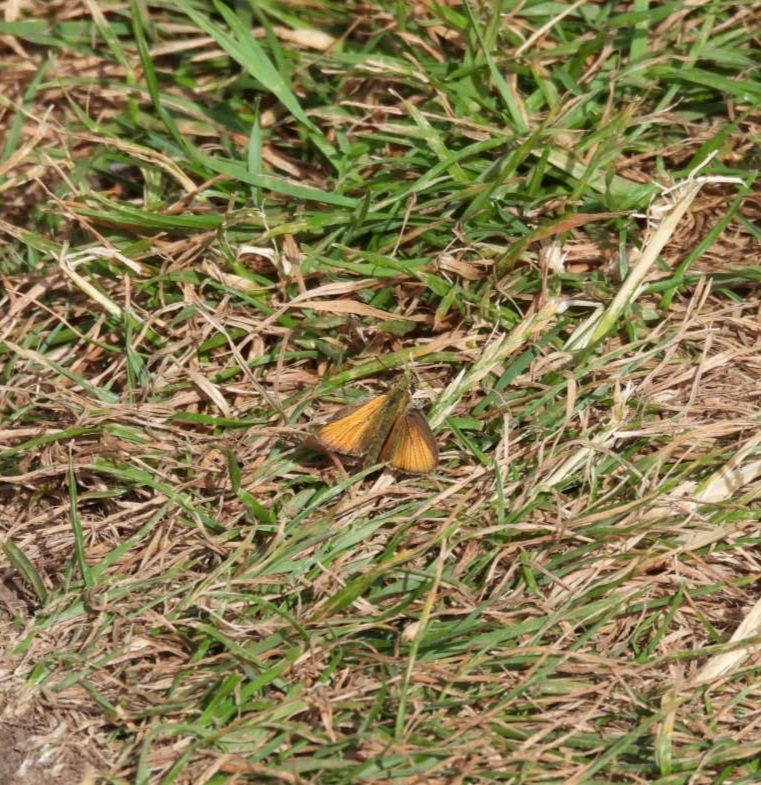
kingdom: Animalia
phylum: Arthropoda
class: Insecta
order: Lepidoptera
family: Hesperiidae
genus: Thymelicus
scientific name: Thymelicus sylvestris
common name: Small skipper
